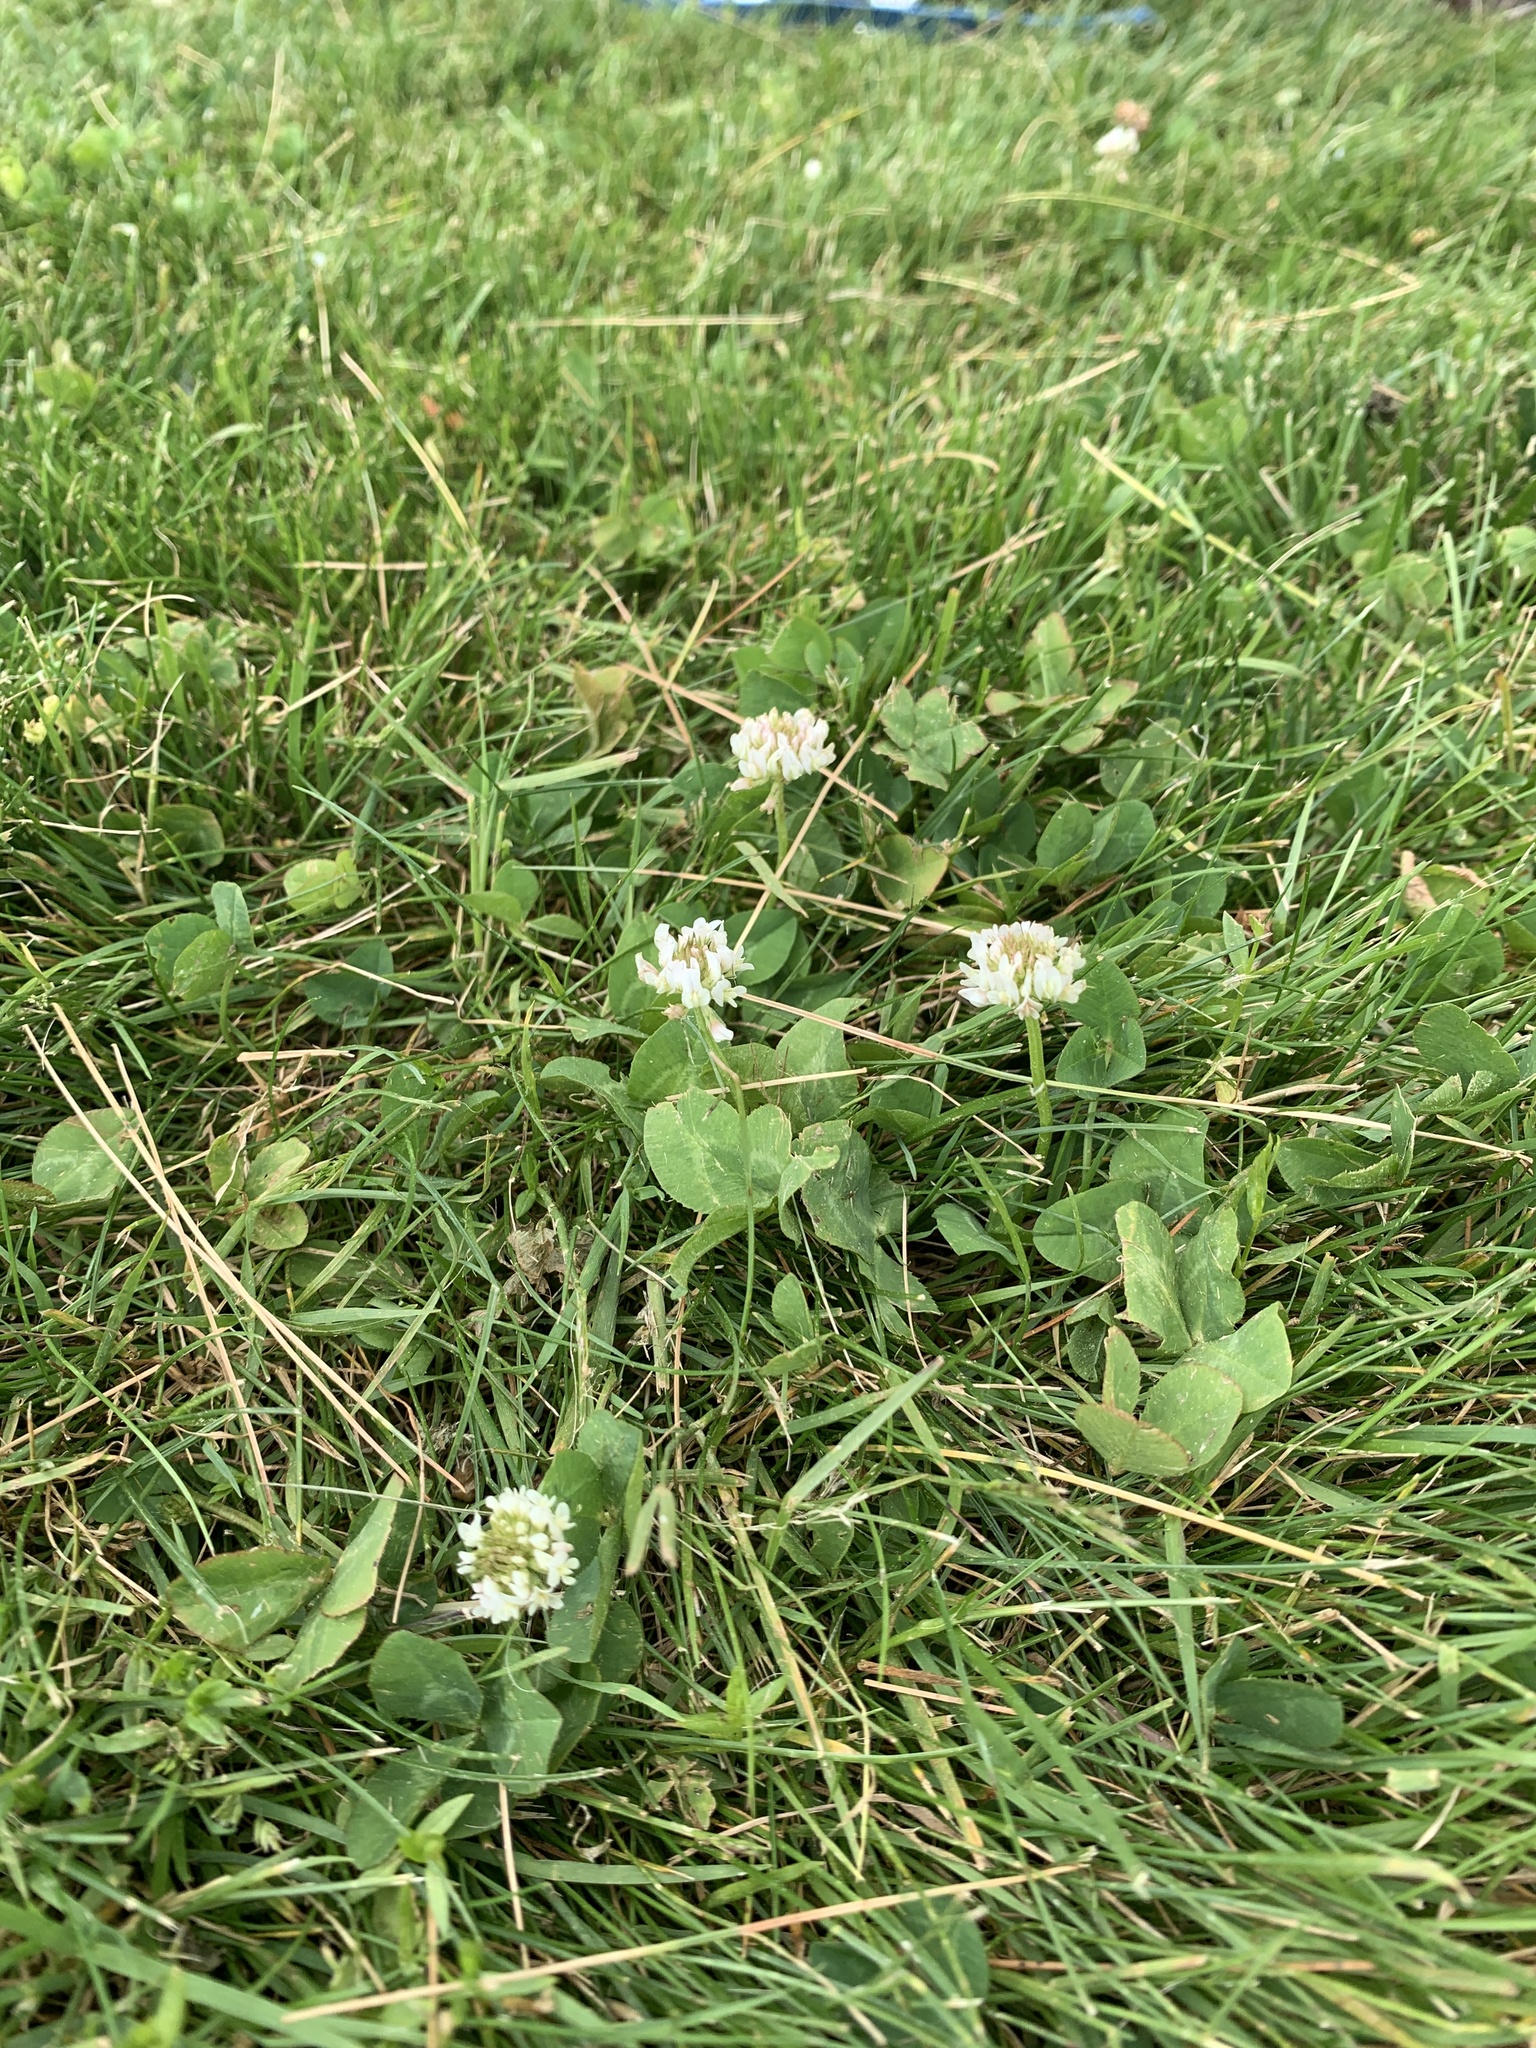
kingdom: Plantae
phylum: Tracheophyta
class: Magnoliopsida
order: Fabales
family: Fabaceae
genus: Trifolium
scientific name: Trifolium repens
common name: White clover
